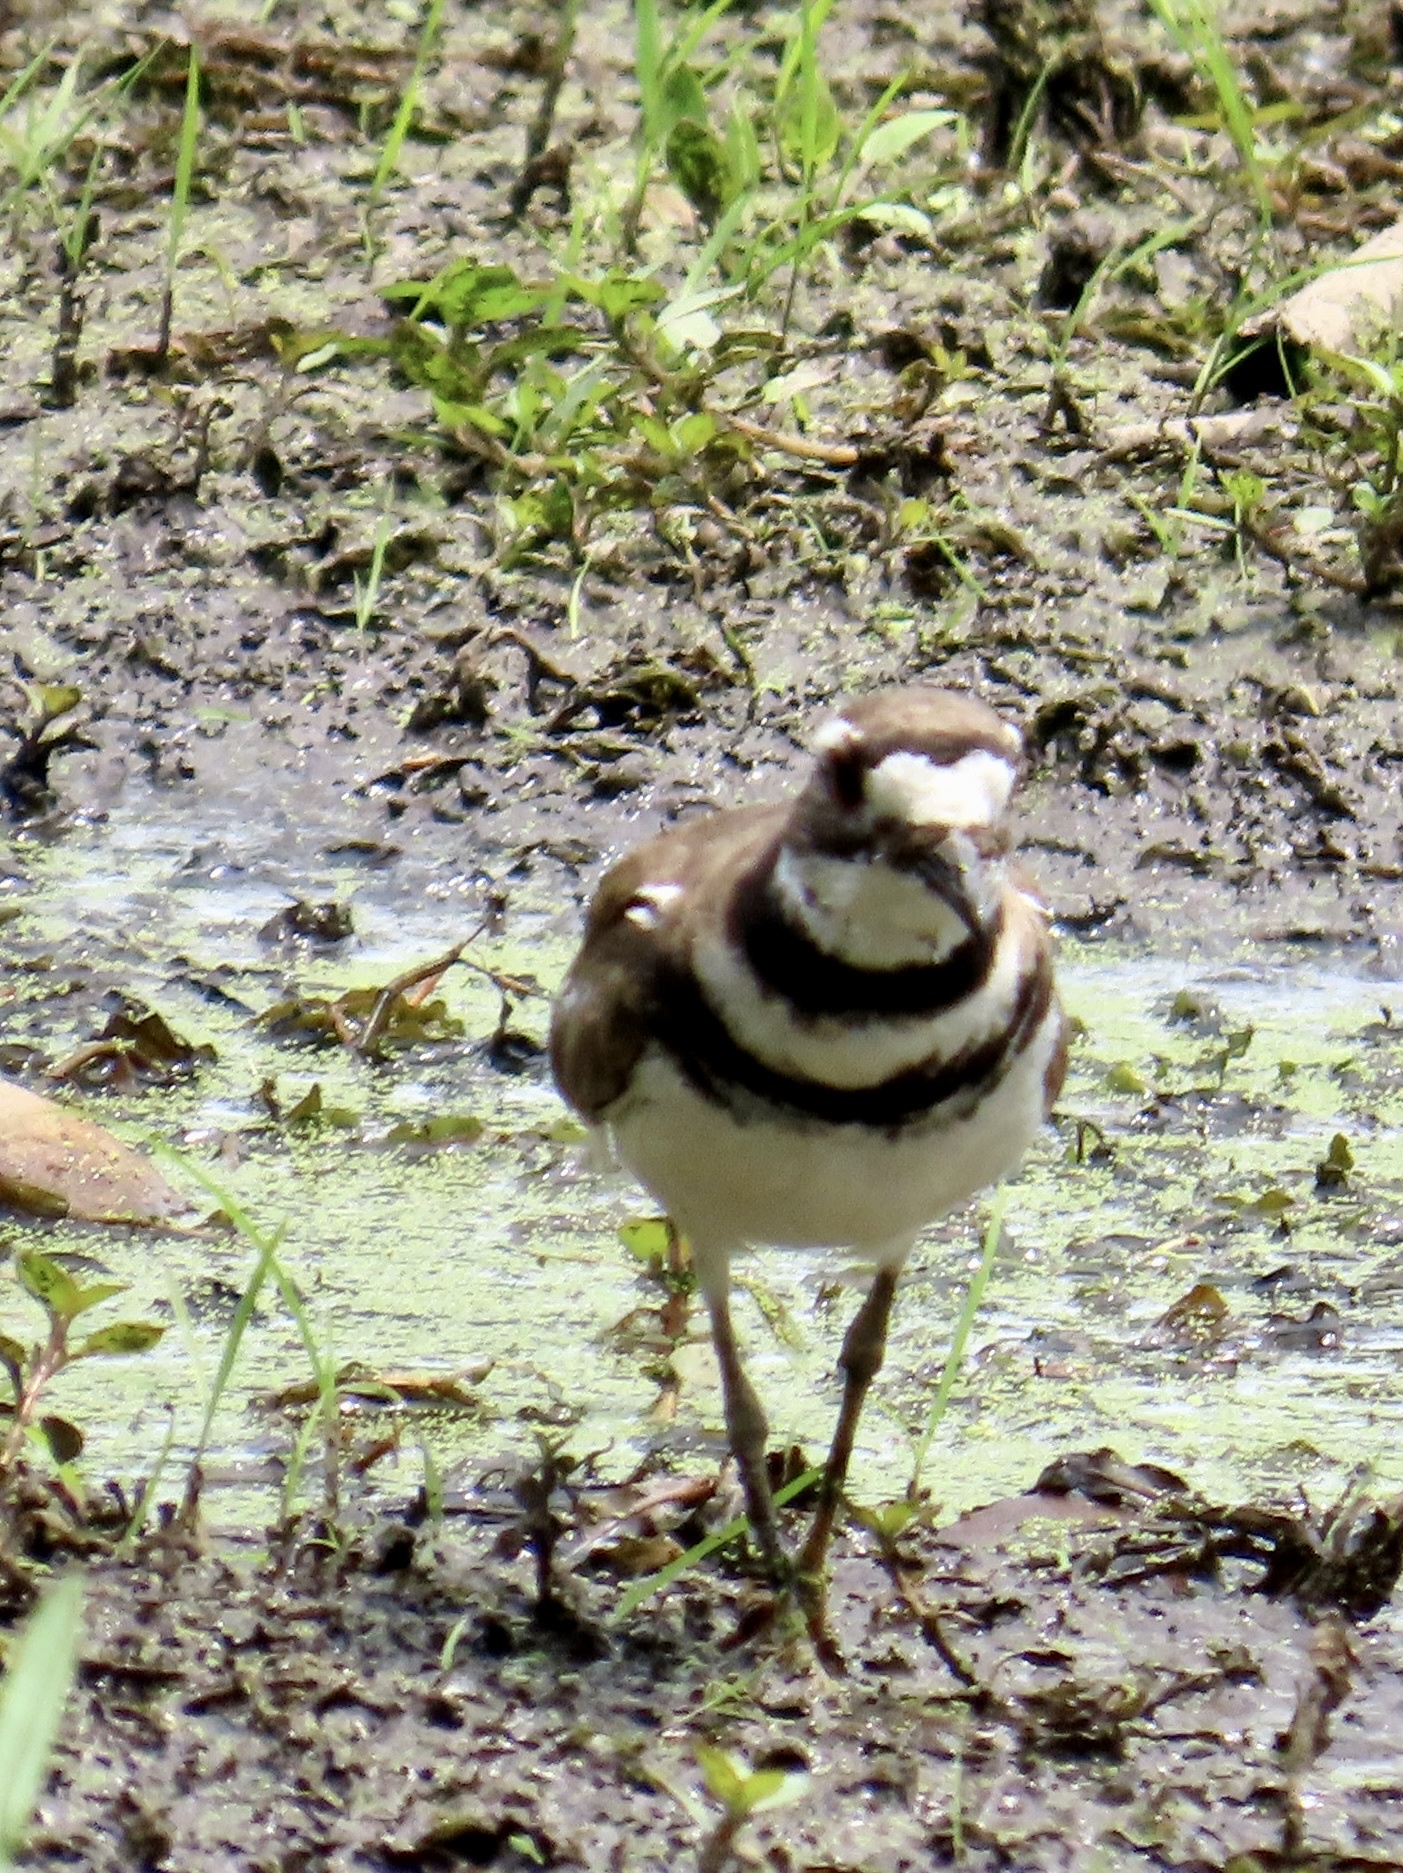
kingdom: Animalia
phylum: Chordata
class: Aves
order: Charadriiformes
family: Charadriidae
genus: Charadrius
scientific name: Charadrius vociferus
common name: Killdeer
